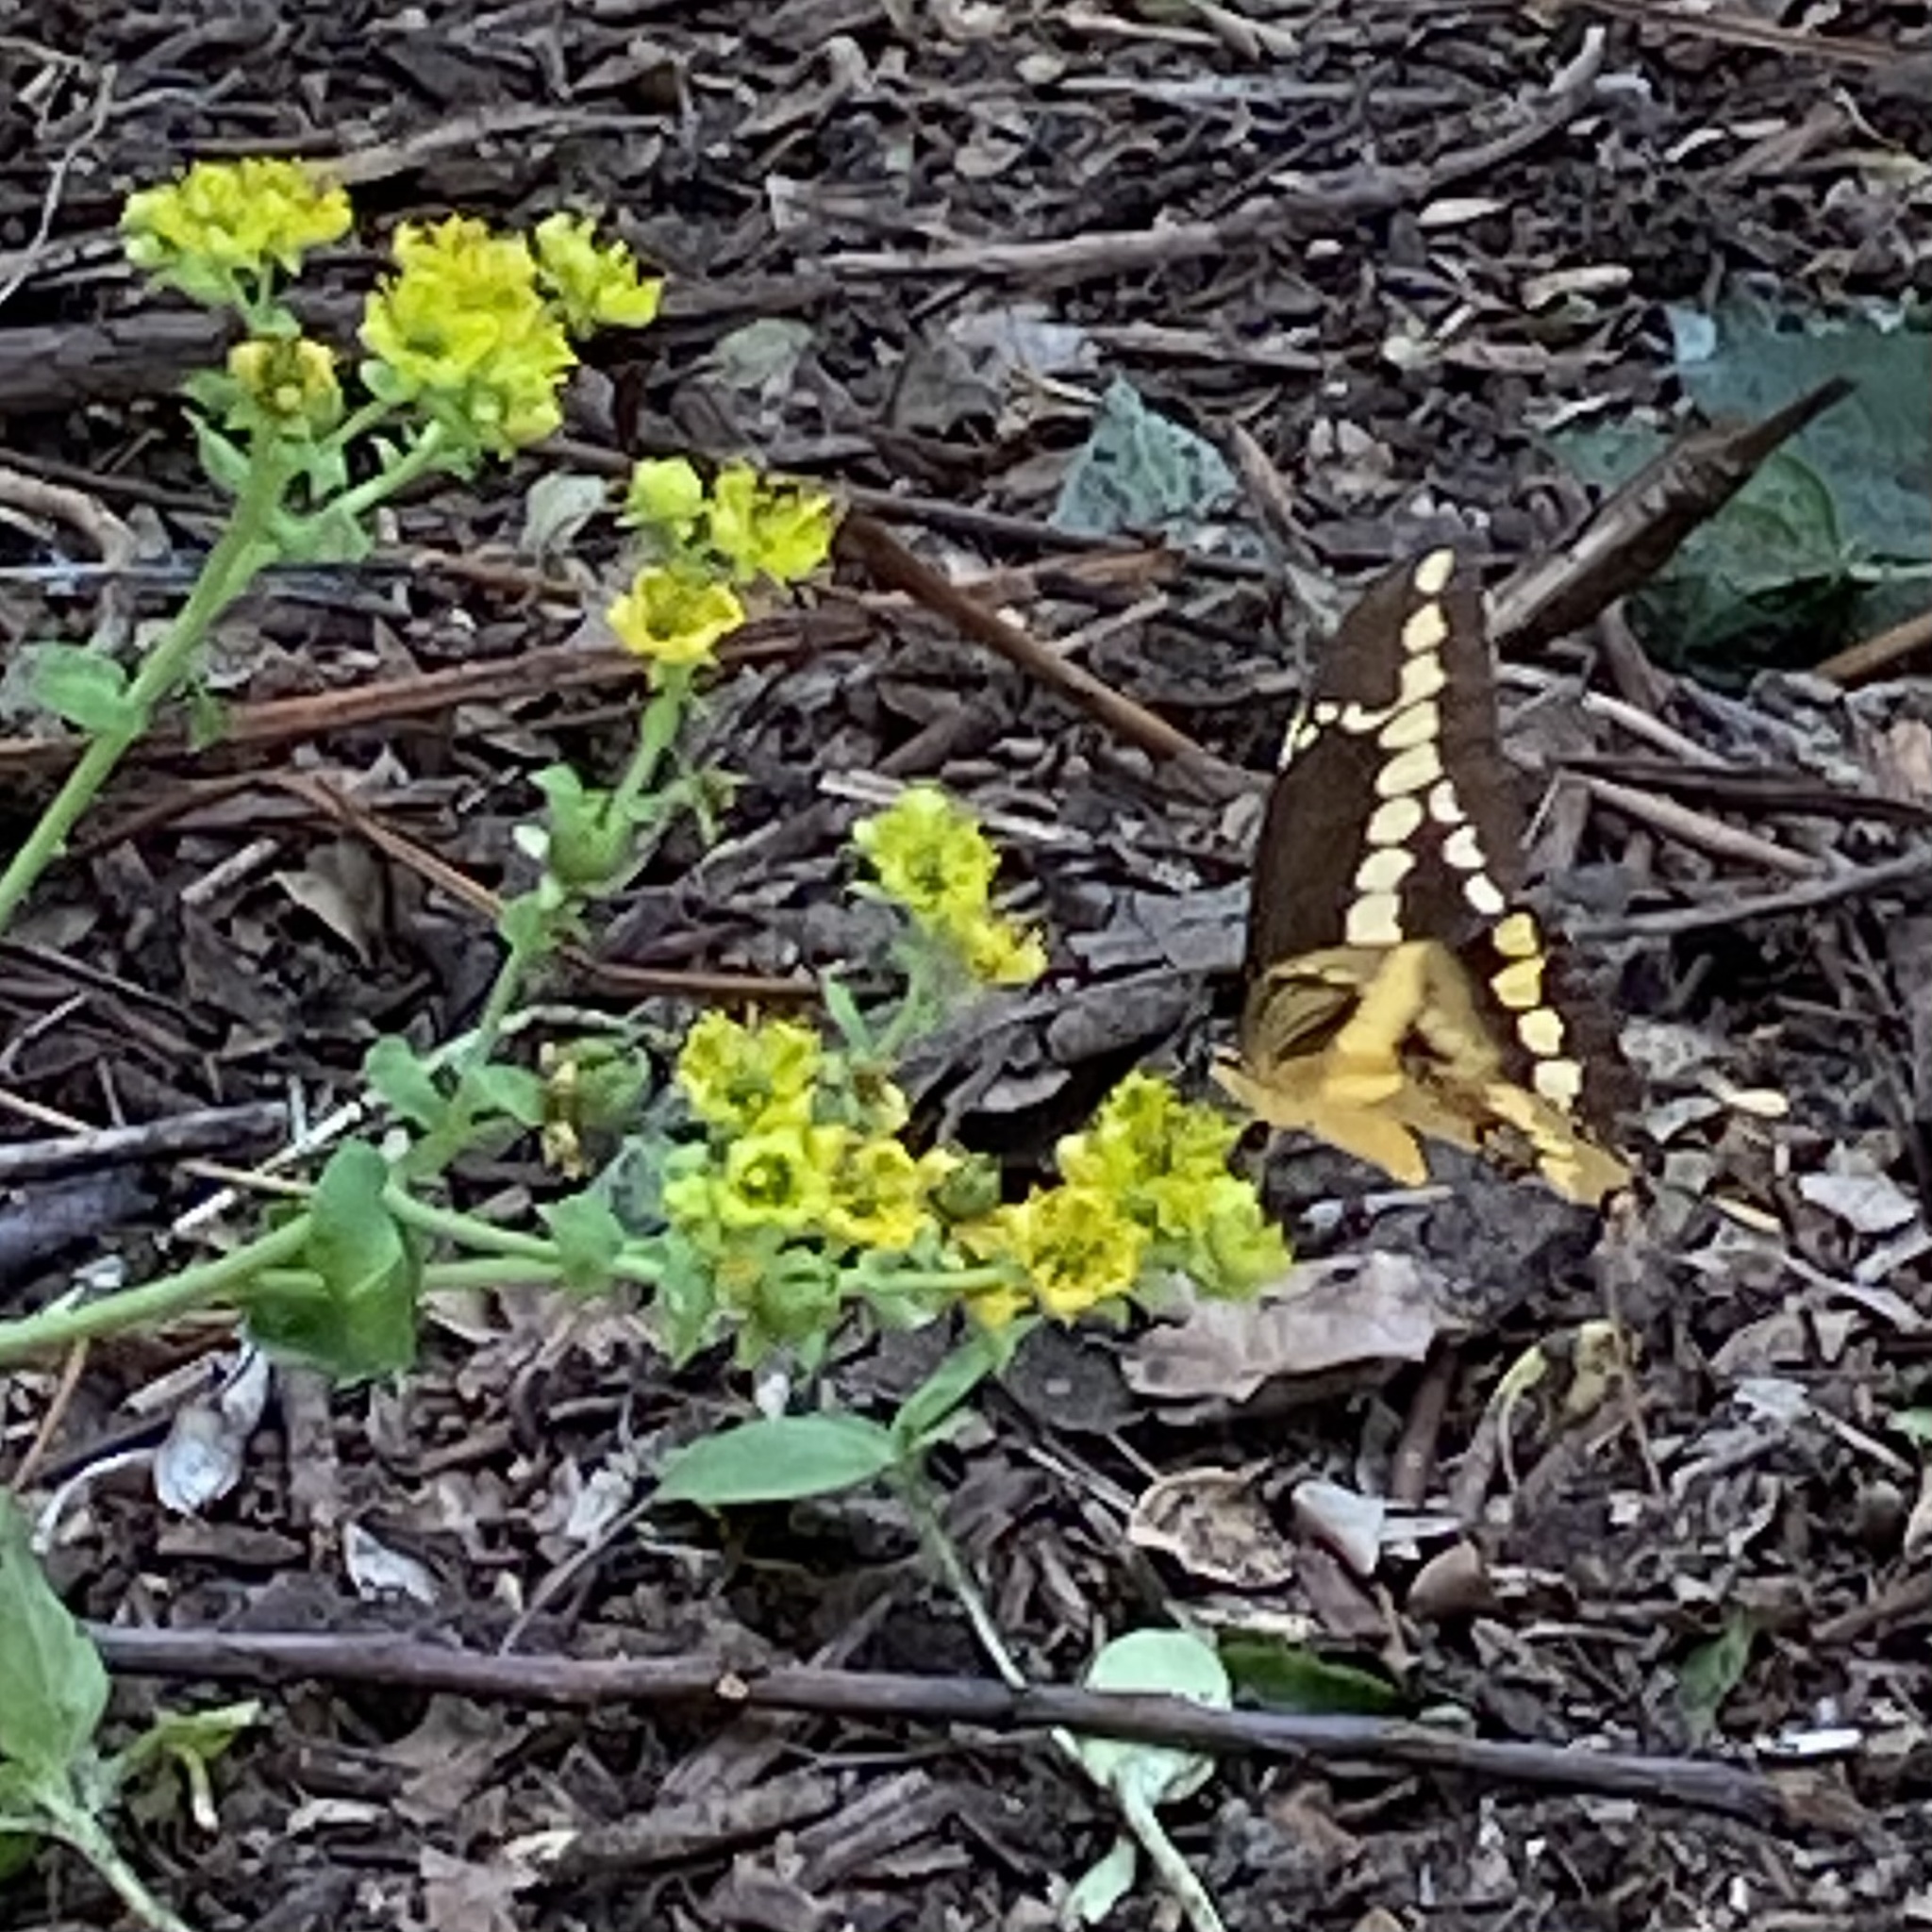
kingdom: Animalia
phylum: Arthropoda
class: Insecta
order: Lepidoptera
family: Papilionidae
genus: Papilio
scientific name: Papilio rumiko
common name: Western giant swallowtail
